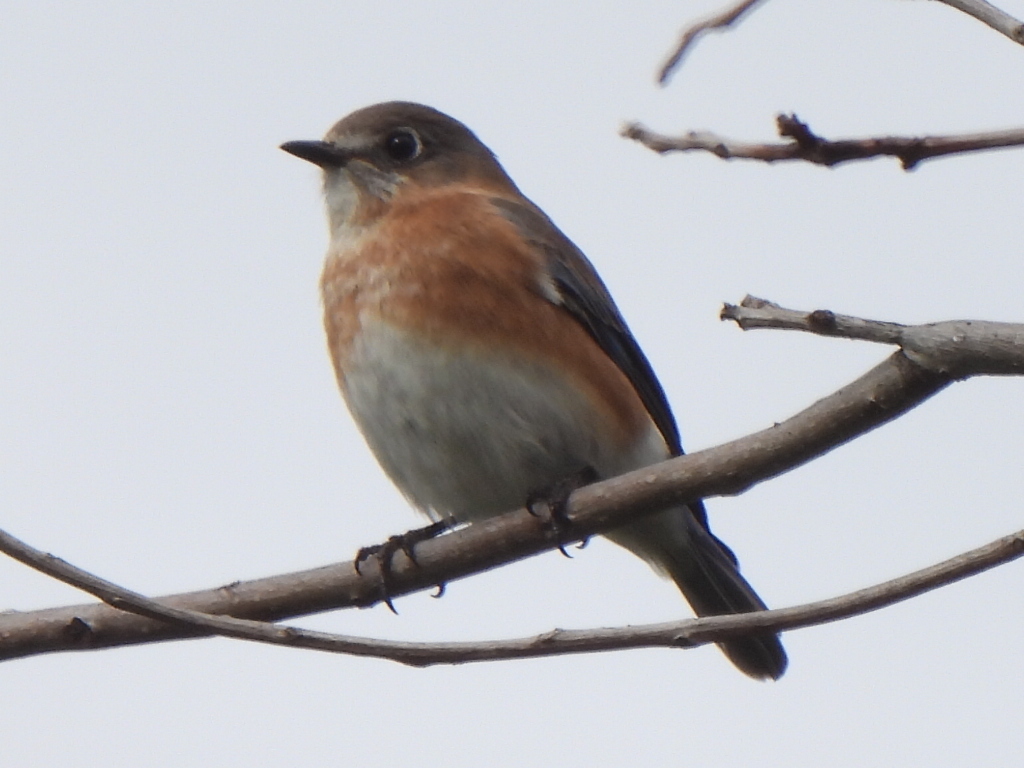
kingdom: Animalia
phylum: Chordata
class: Aves
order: Passeriformes
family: Turdidae
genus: Sialia
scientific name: Sialia sialis
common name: Eastern bluebird
